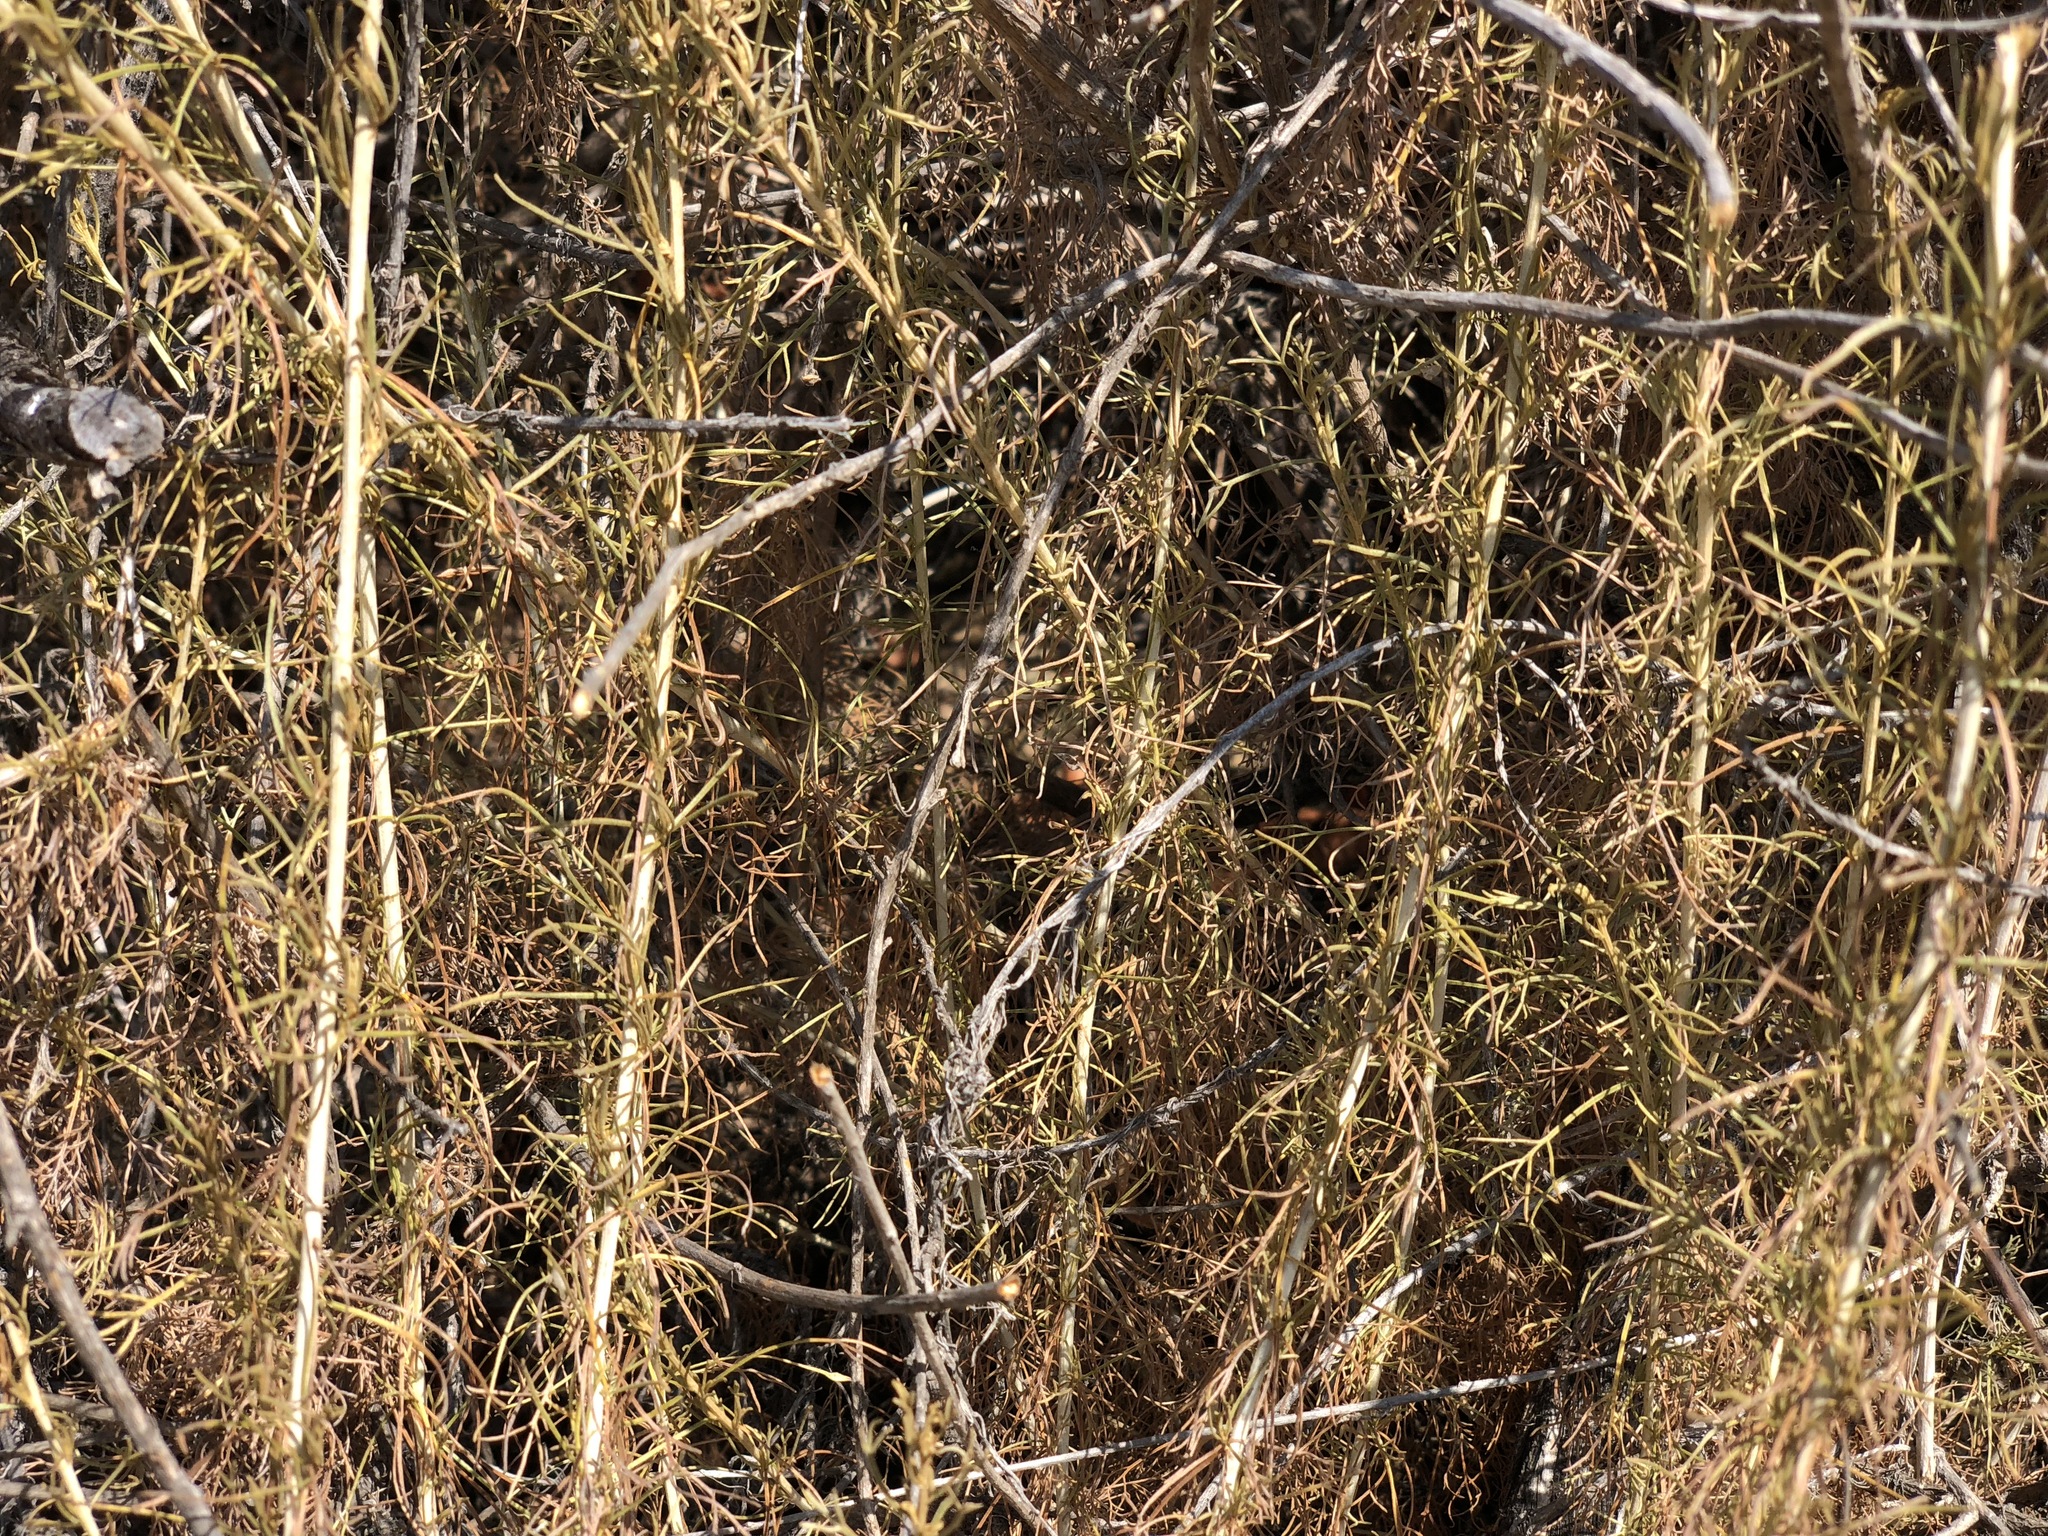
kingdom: Plantae
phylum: Tracheophyta
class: Magnoliopsida
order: Asterales
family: Asteraceae
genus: Artemisia
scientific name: Artemisia californica
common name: California sagebrush
